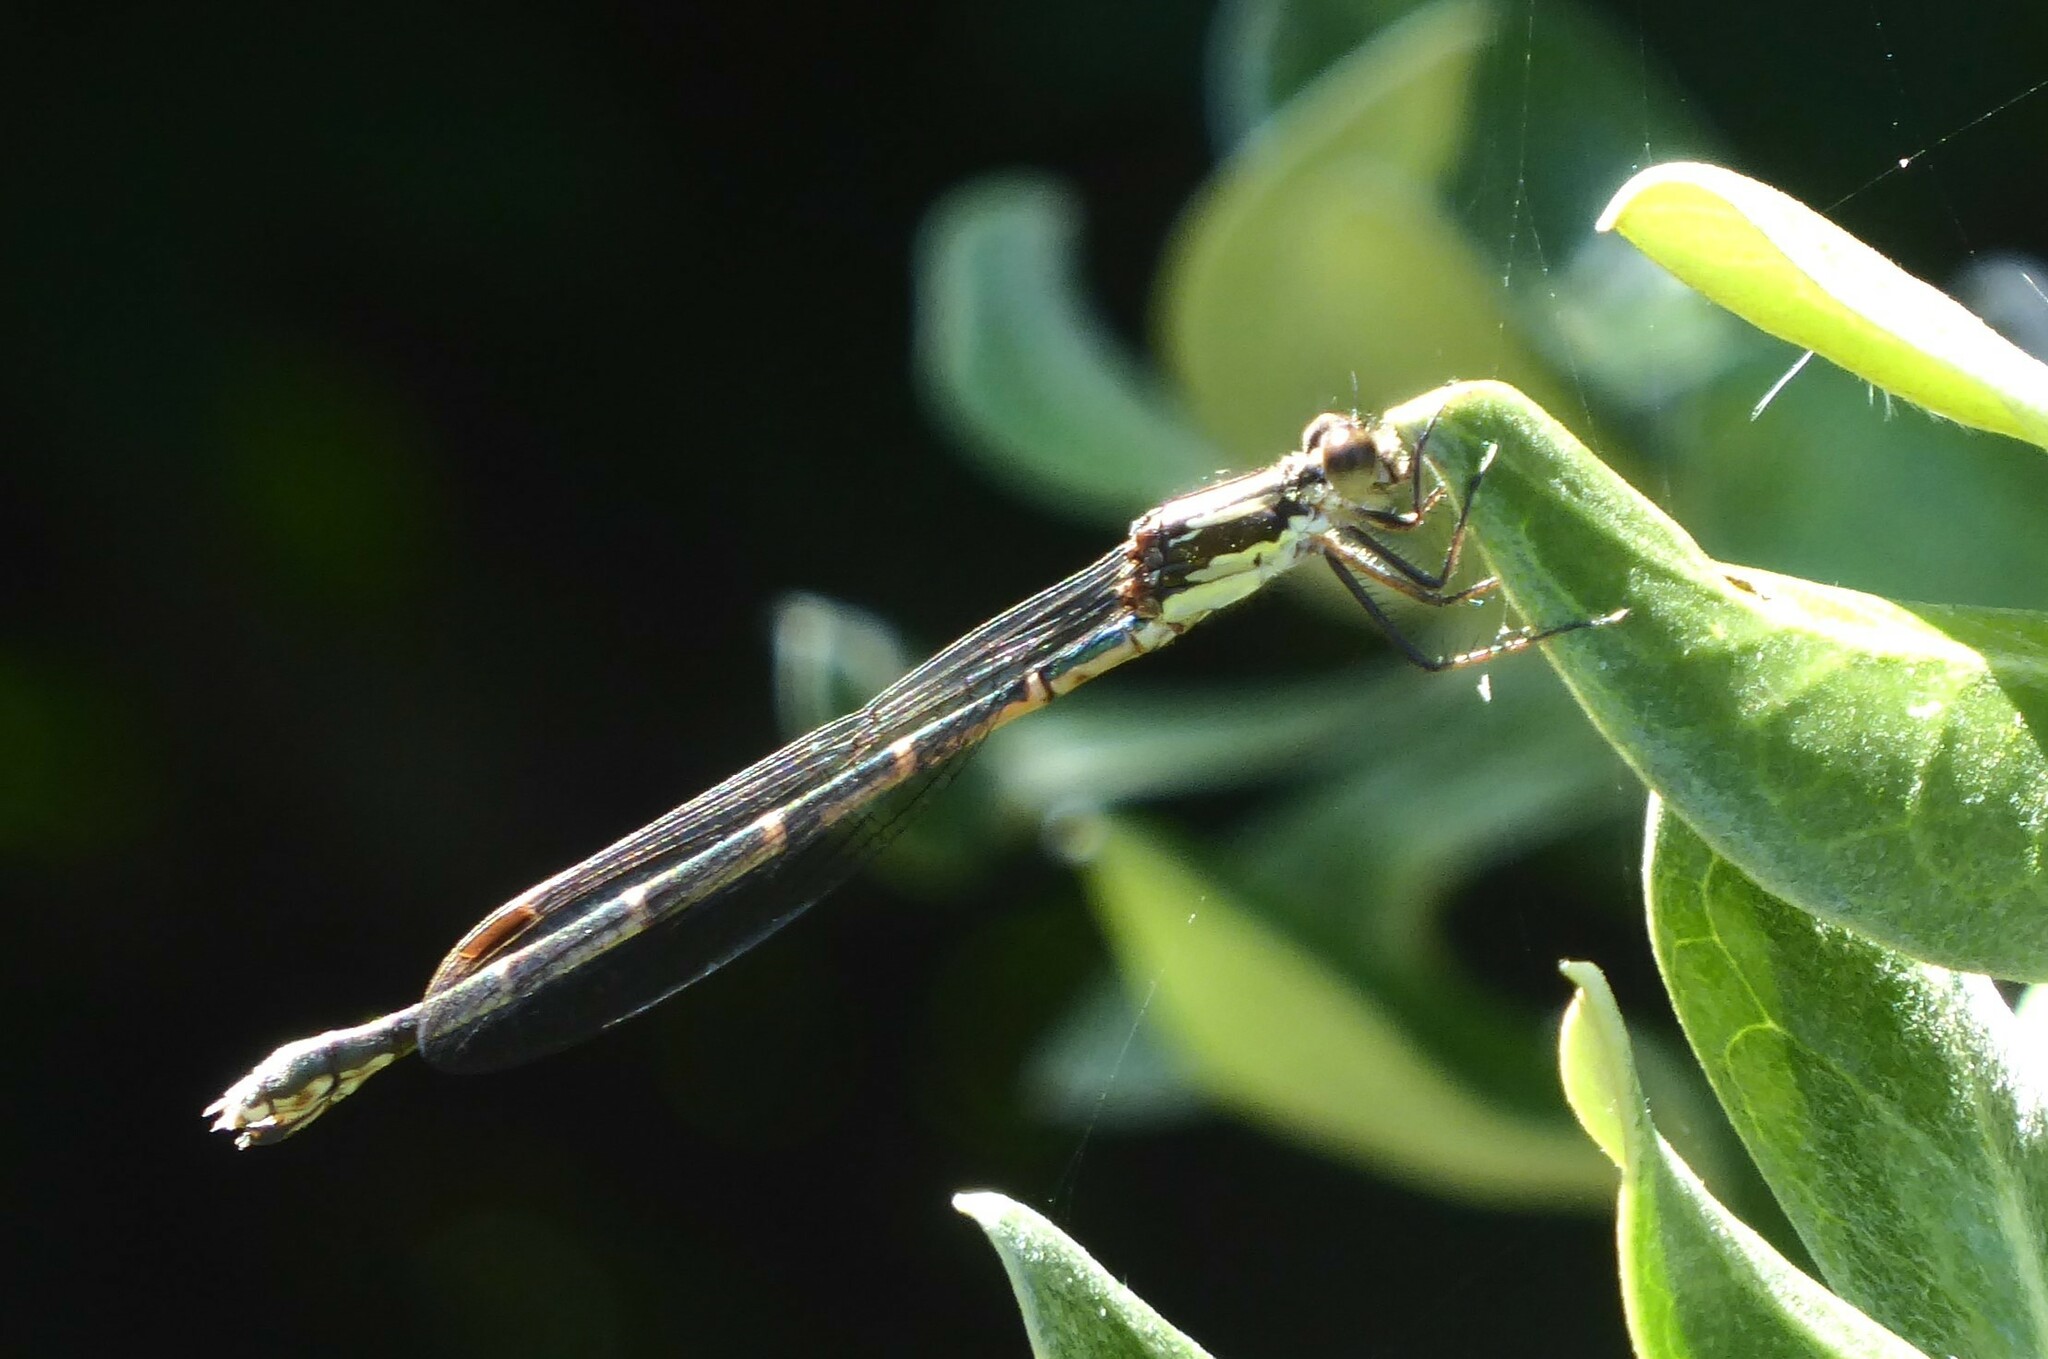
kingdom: Animalia
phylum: Arthropoda
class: Insecta
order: Odonata
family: Lestidae
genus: Austrolestes
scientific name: Austrolestes colensonis
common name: Blue damselfly
